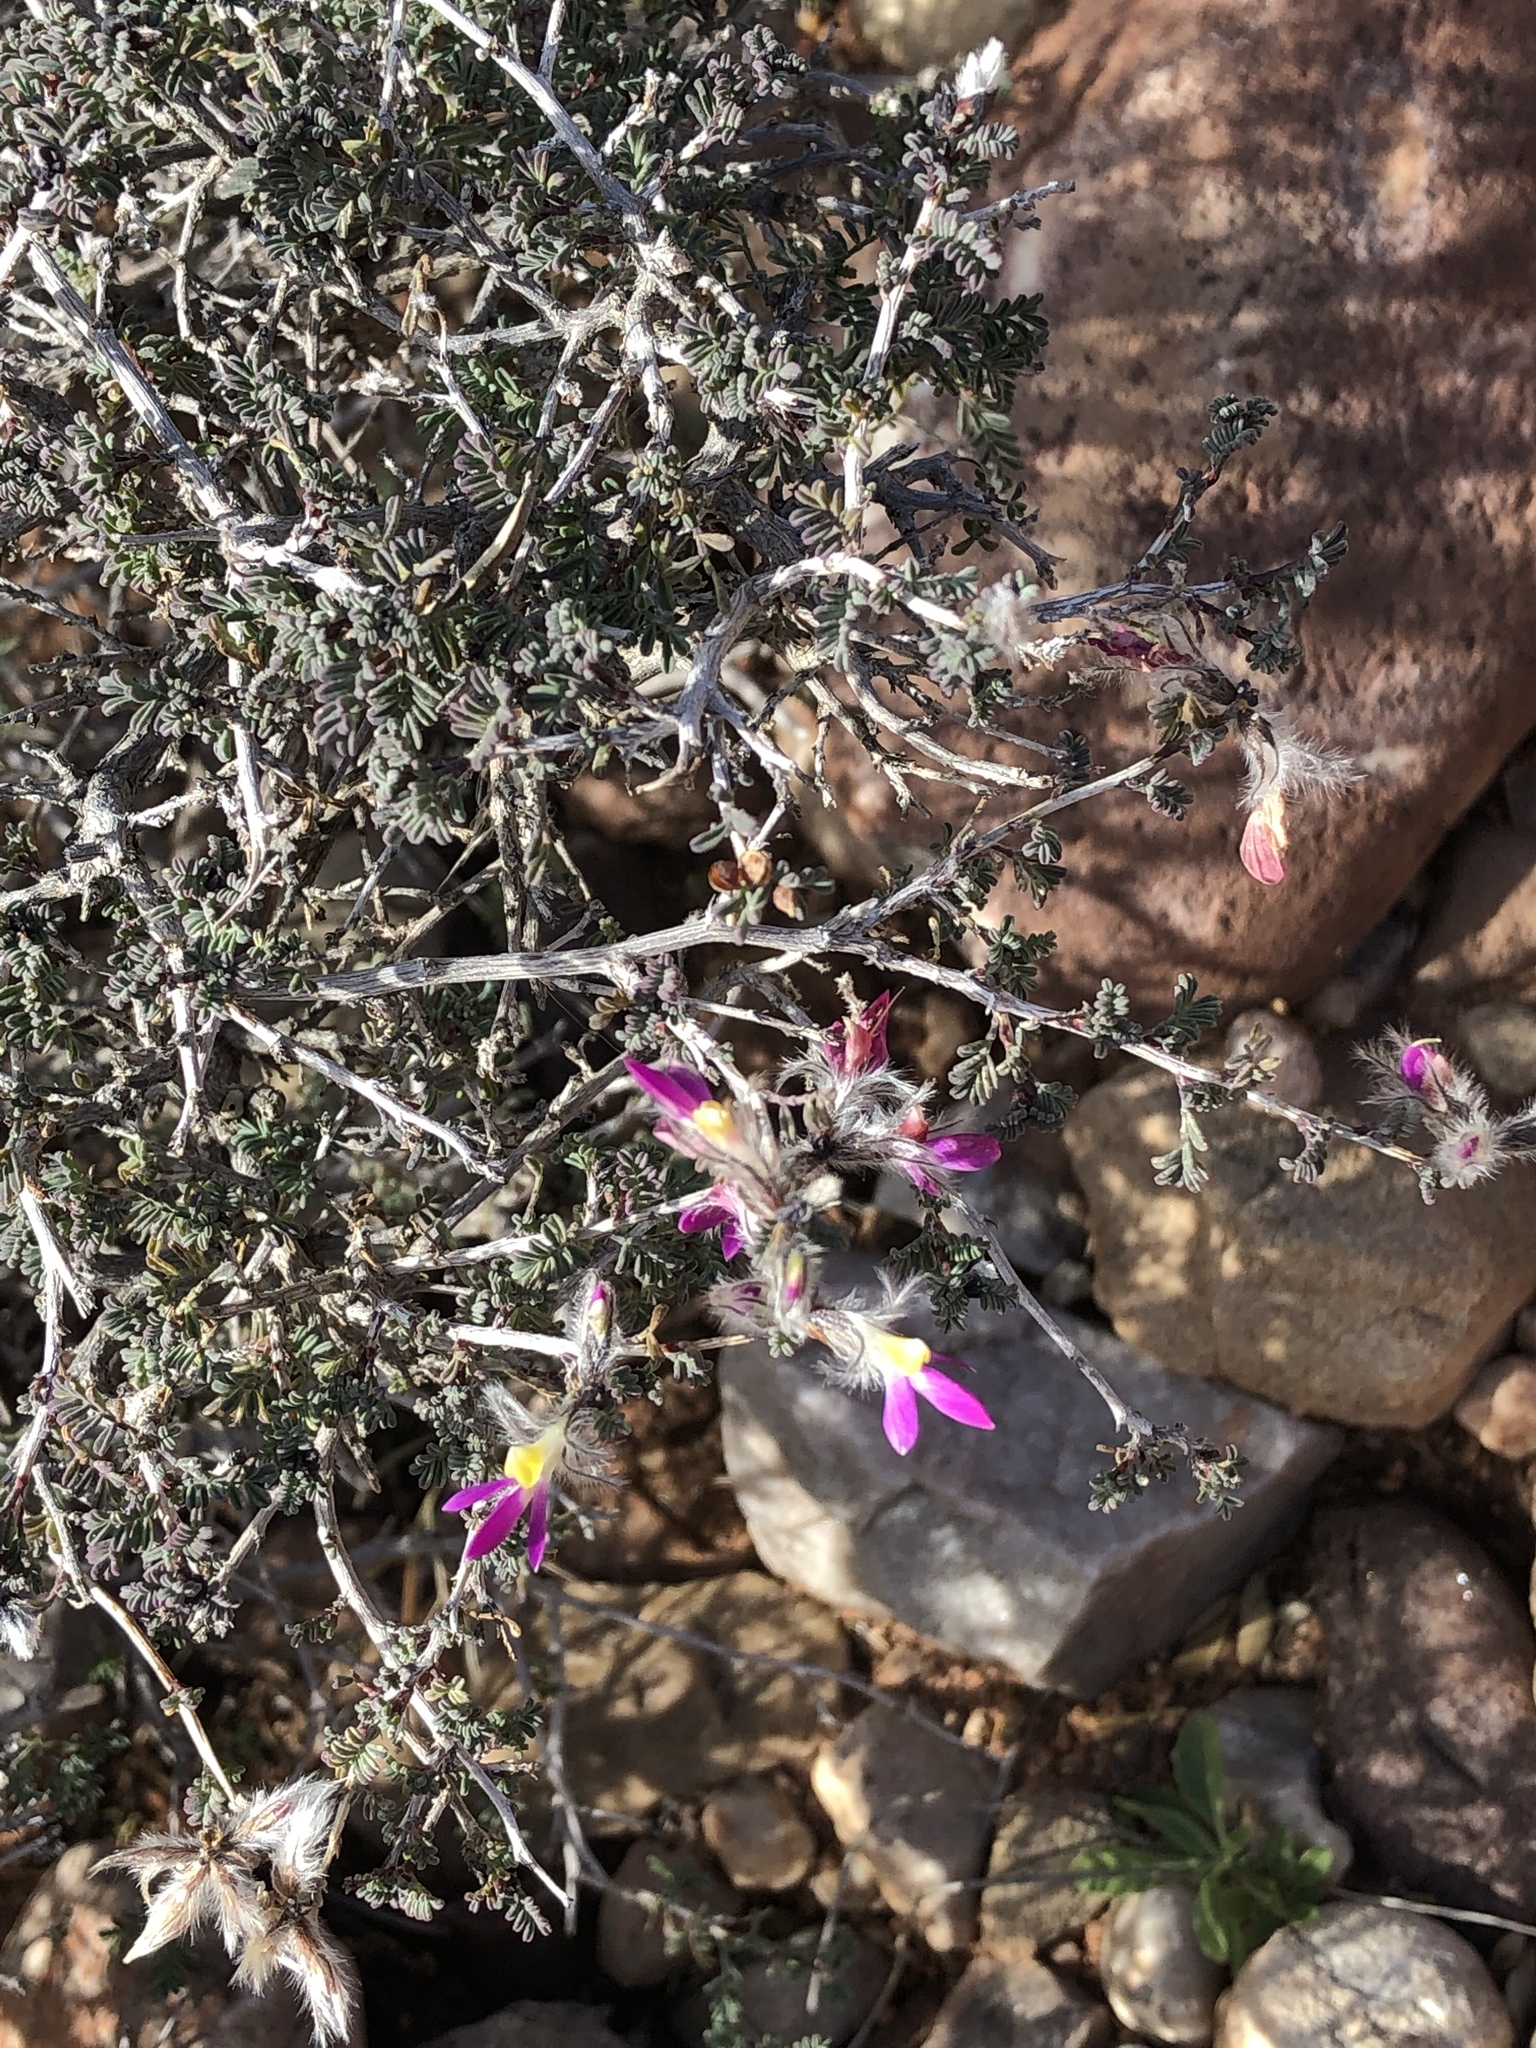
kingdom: Plantae
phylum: Tracheophyta
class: Magnoliopsida
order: Fabales
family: Fabaceae
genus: Dalea
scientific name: Dalea formosa
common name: Feather-plume dalea
